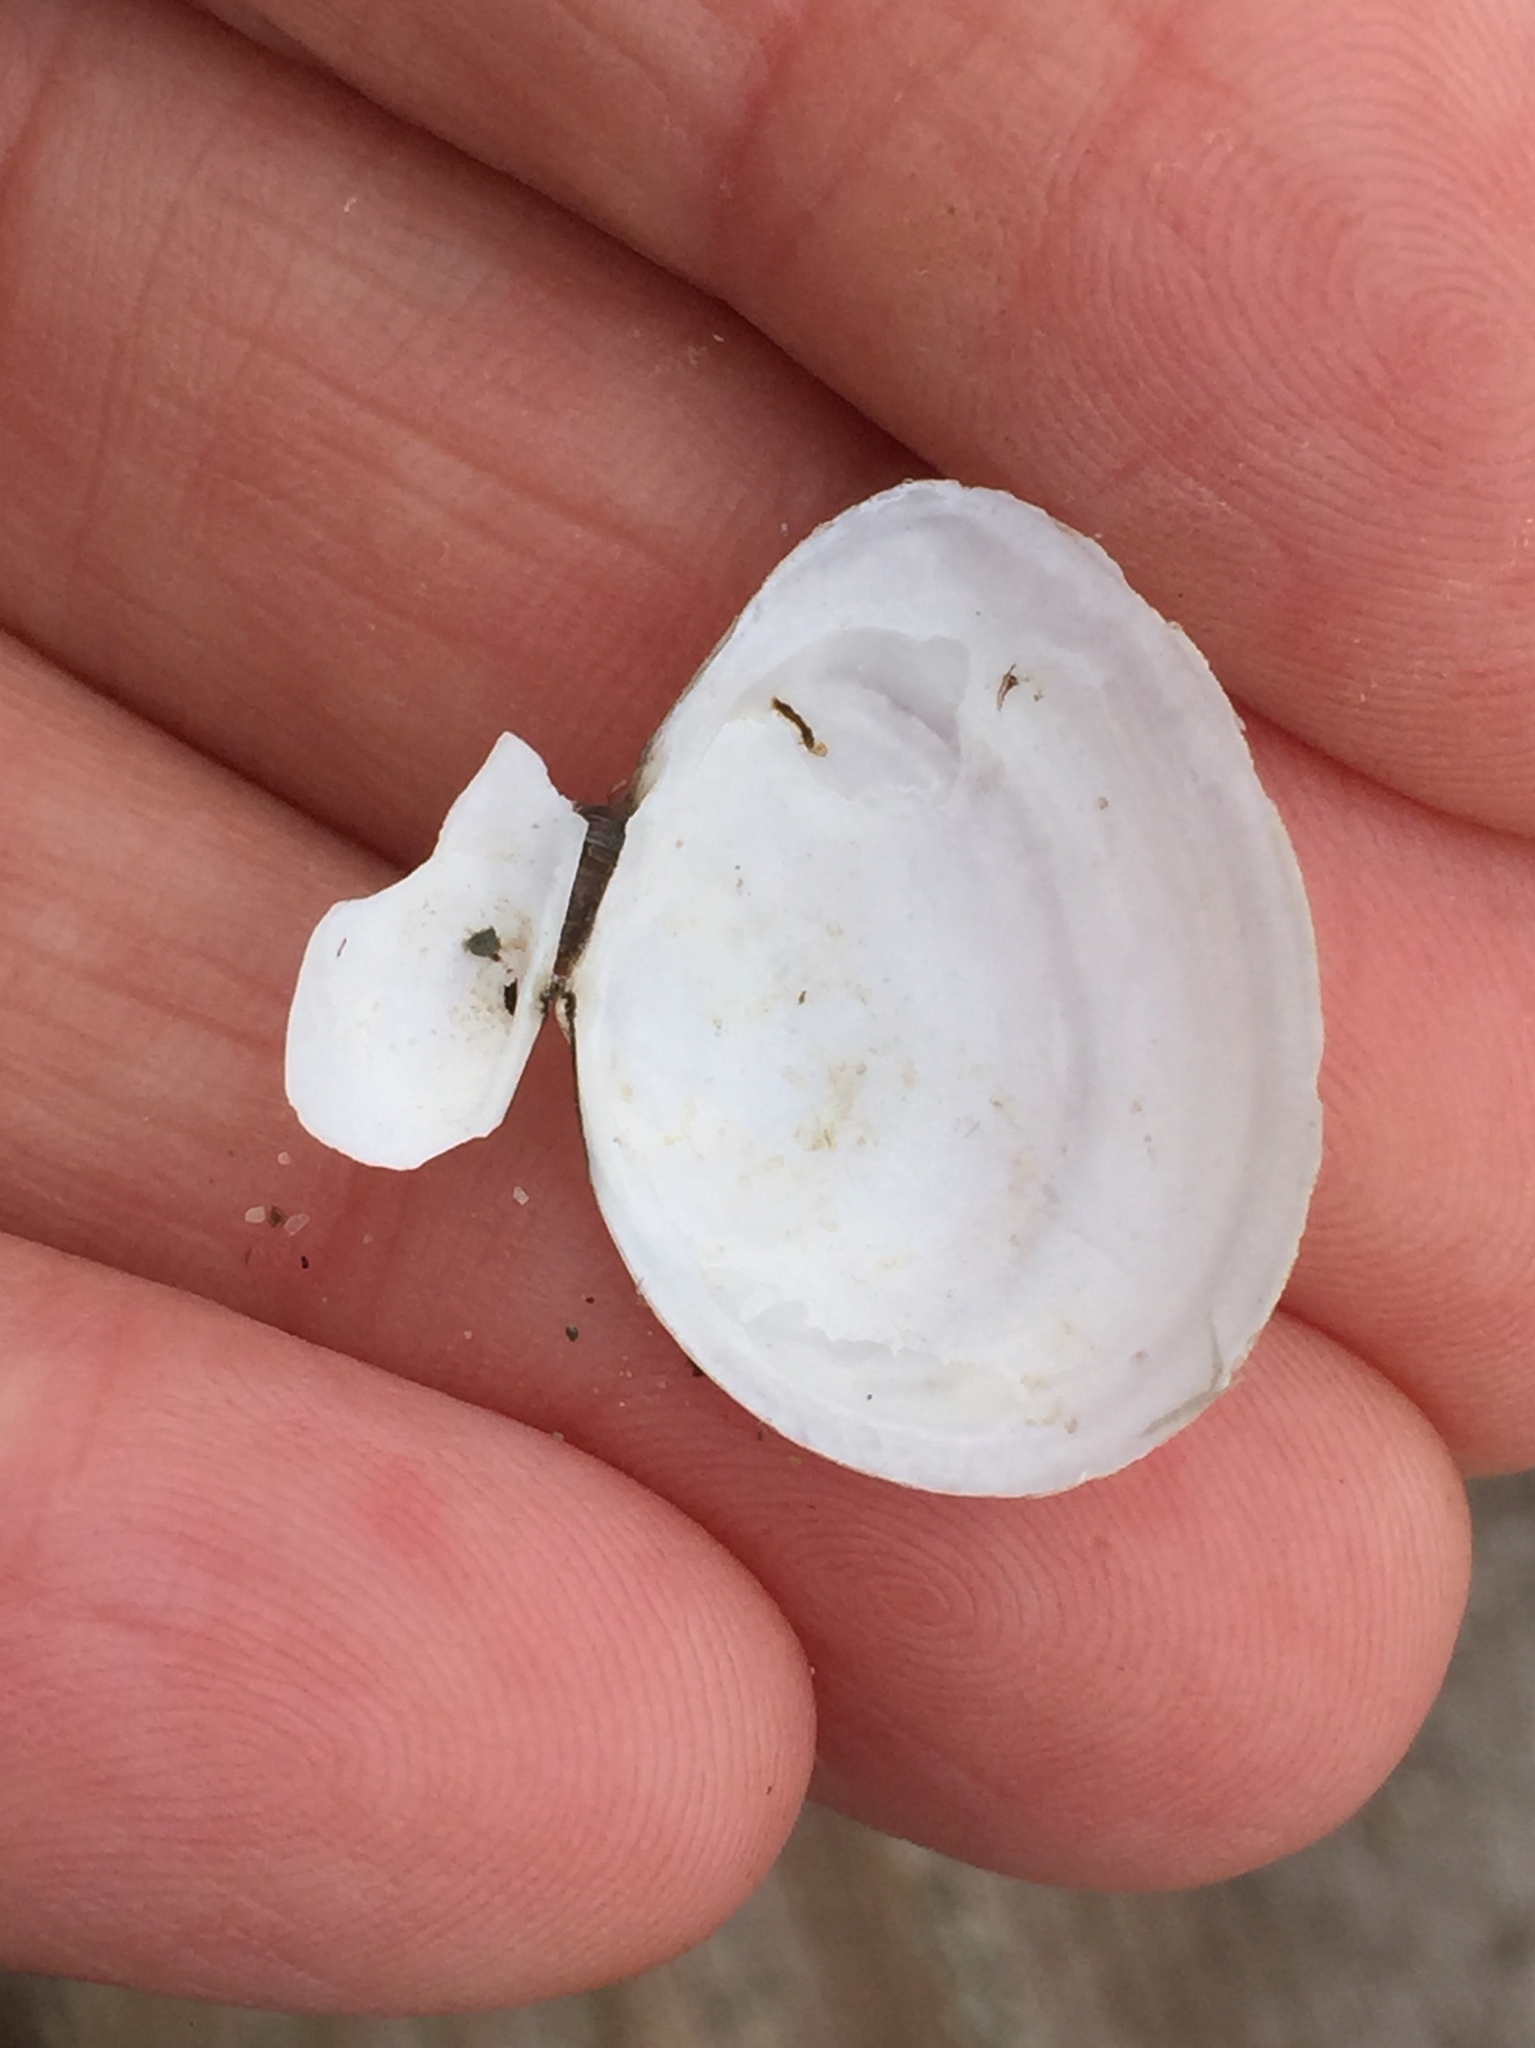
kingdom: Animalia
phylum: Mollusca
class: Bivalvia
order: Cardiida
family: Tellinidae
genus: Macoma
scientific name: Macoma petalum
